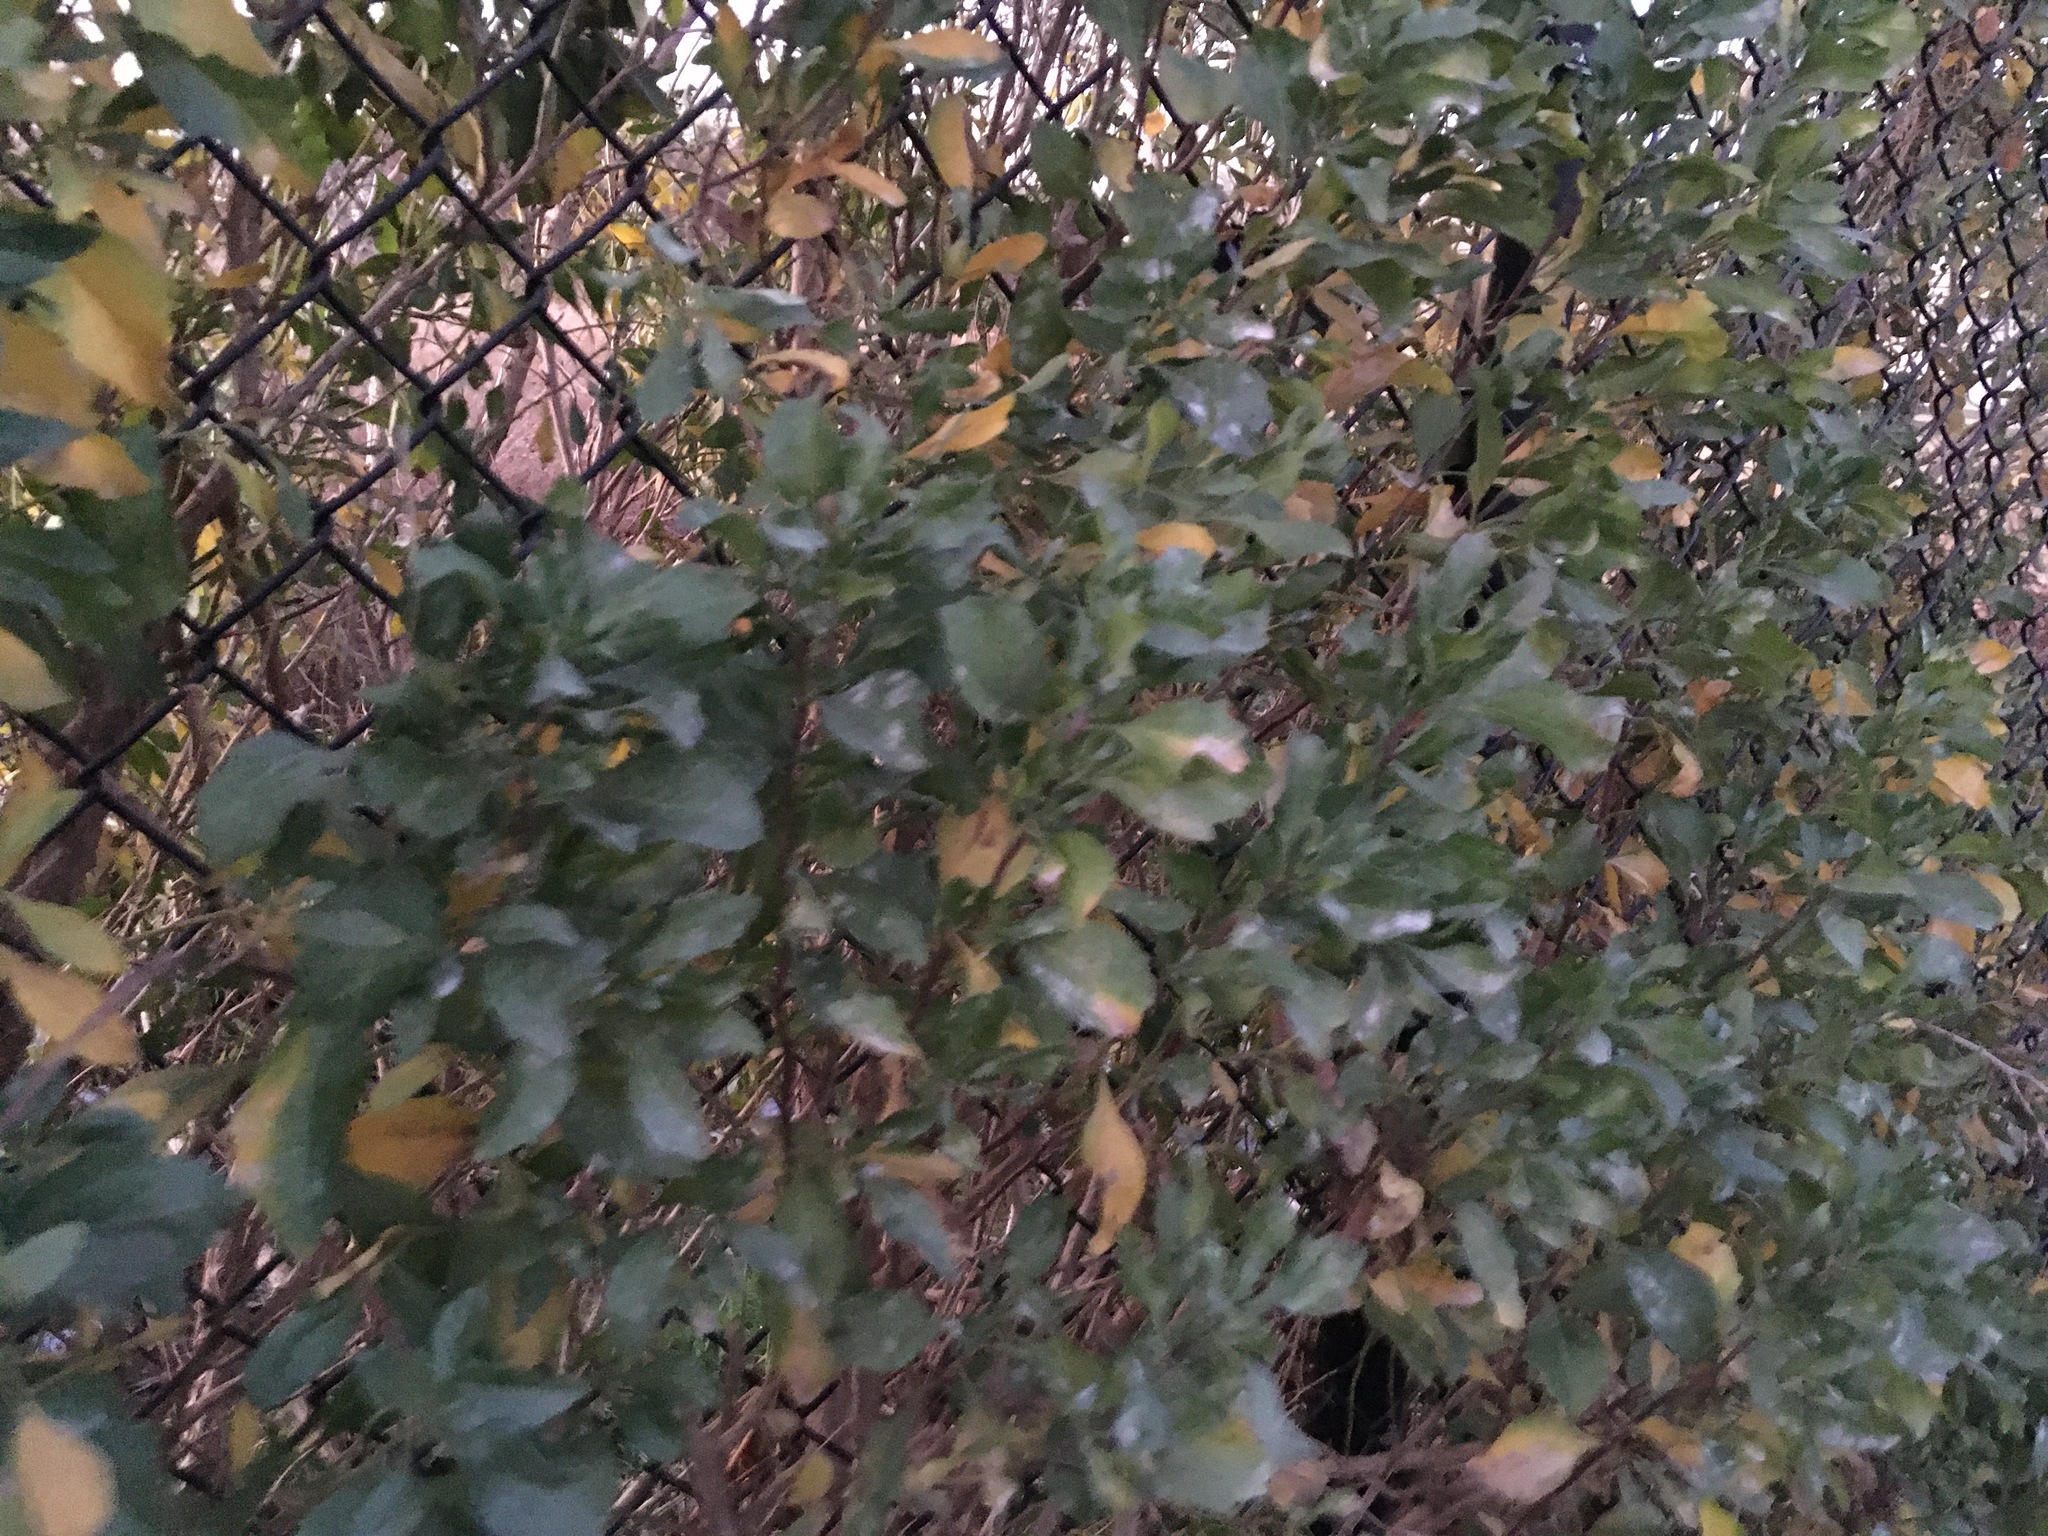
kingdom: Plantae
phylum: Tracheophyta
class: Magnoliopsida
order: Asterales
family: Asteraceae
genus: Baccharis
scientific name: Baccharis halimifolia
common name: Eastern baccharis
